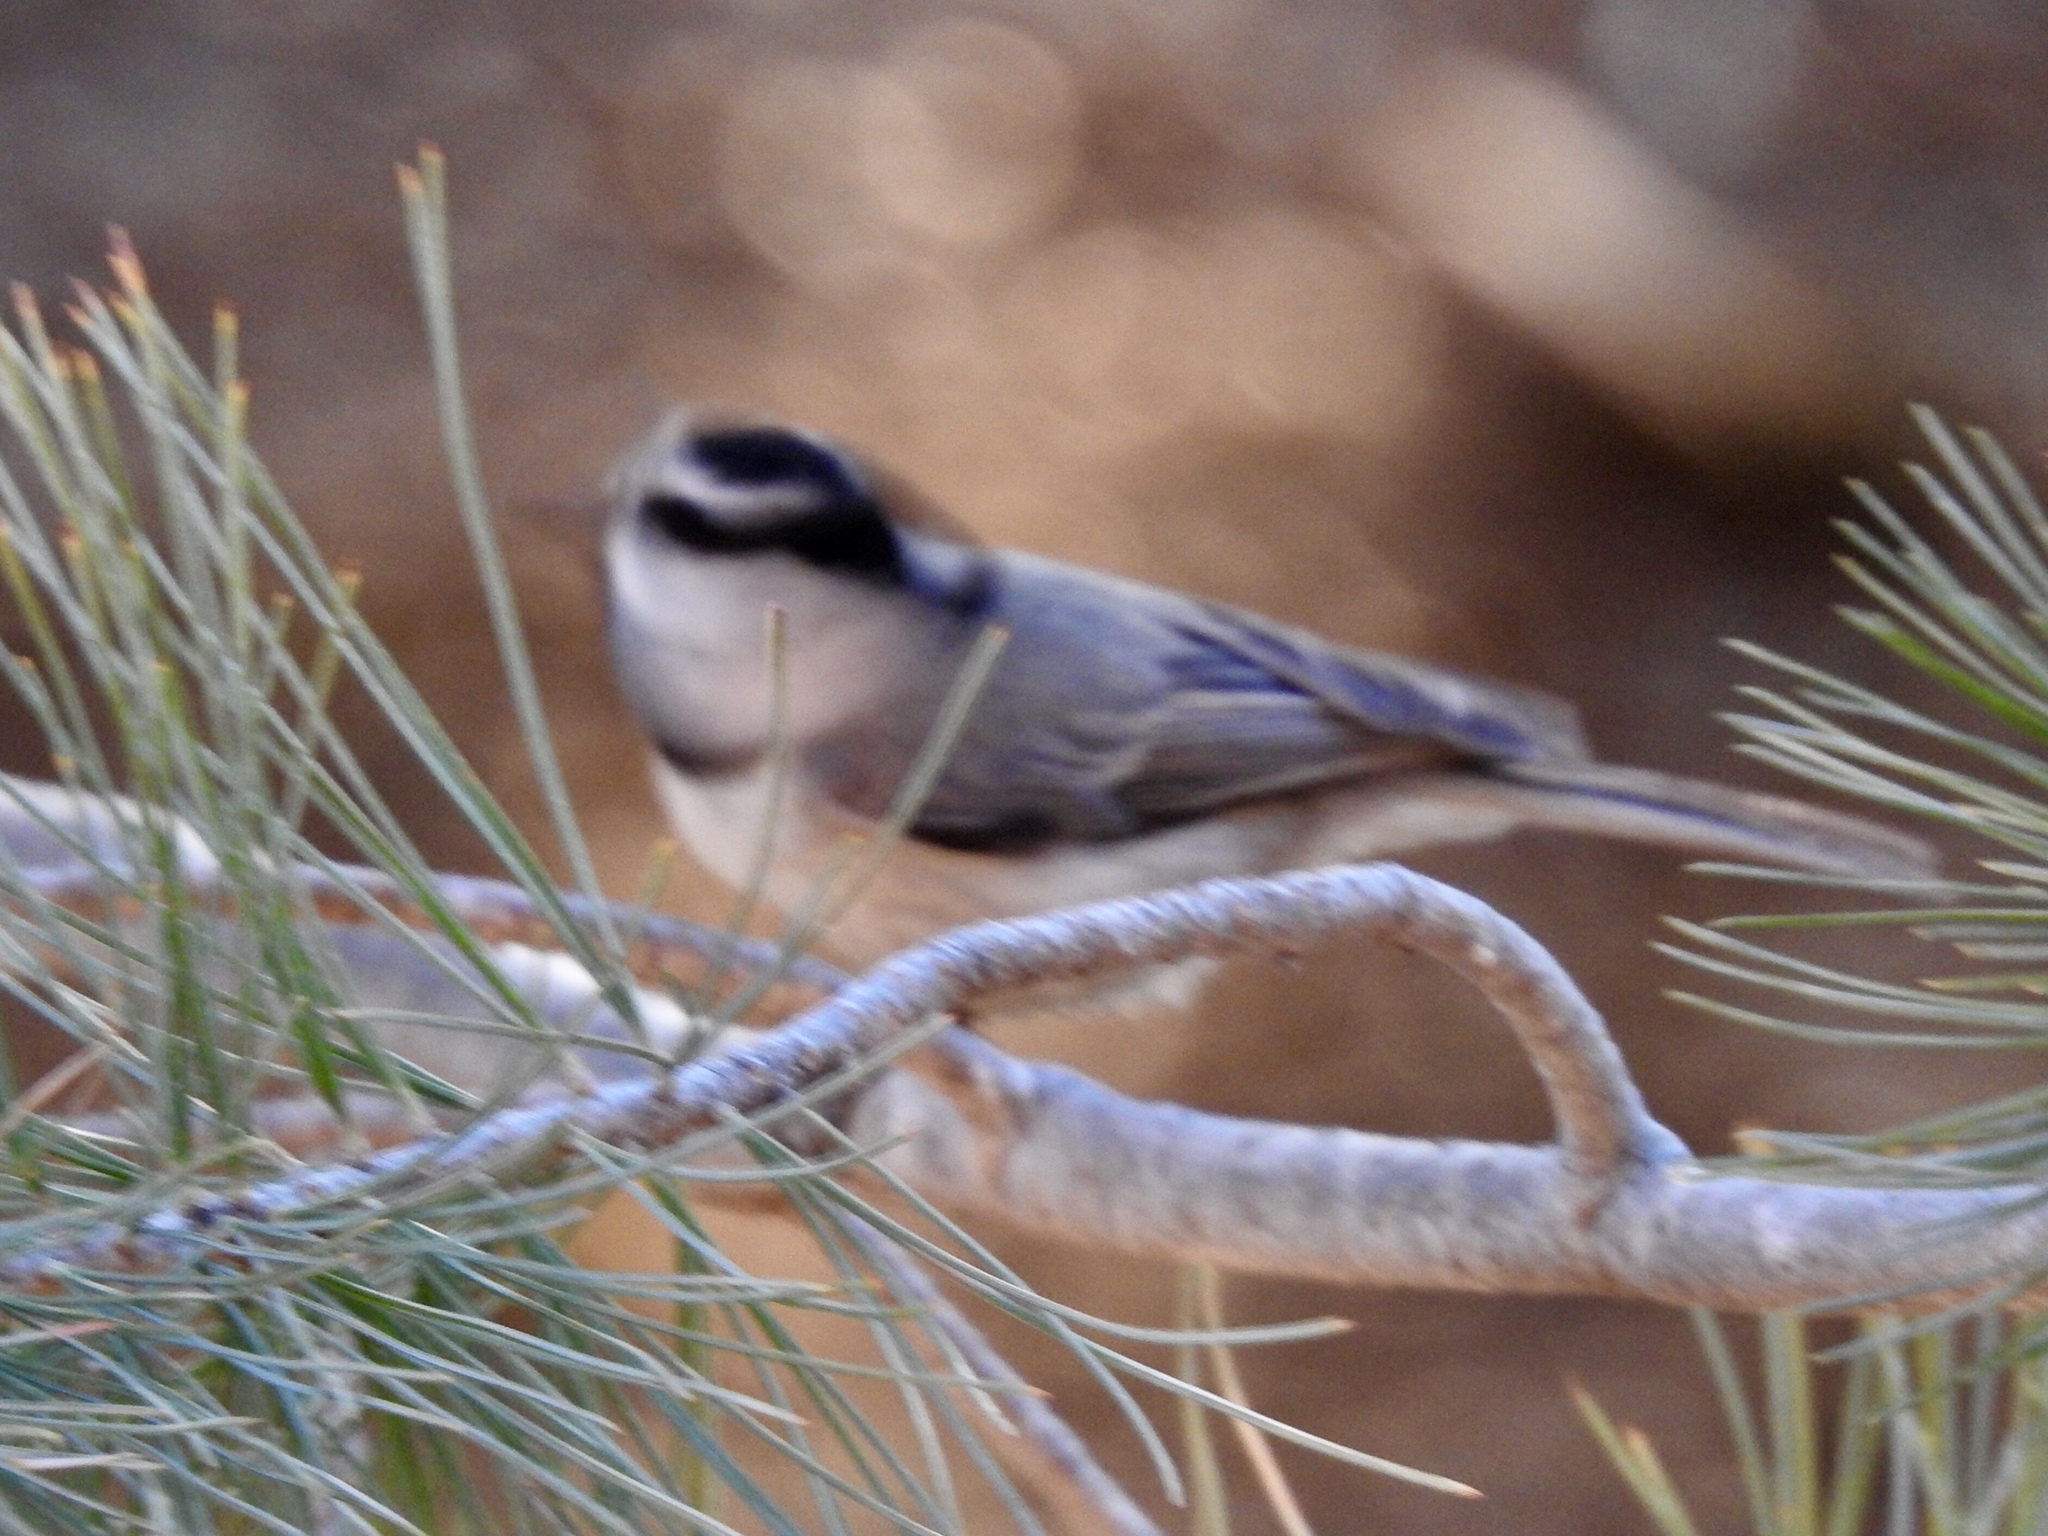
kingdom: Animalia
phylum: Chordata
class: Aves
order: Passeriformes
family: Paridae
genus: Poecile
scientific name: Poecile gambeli
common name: Mountain chickadee
